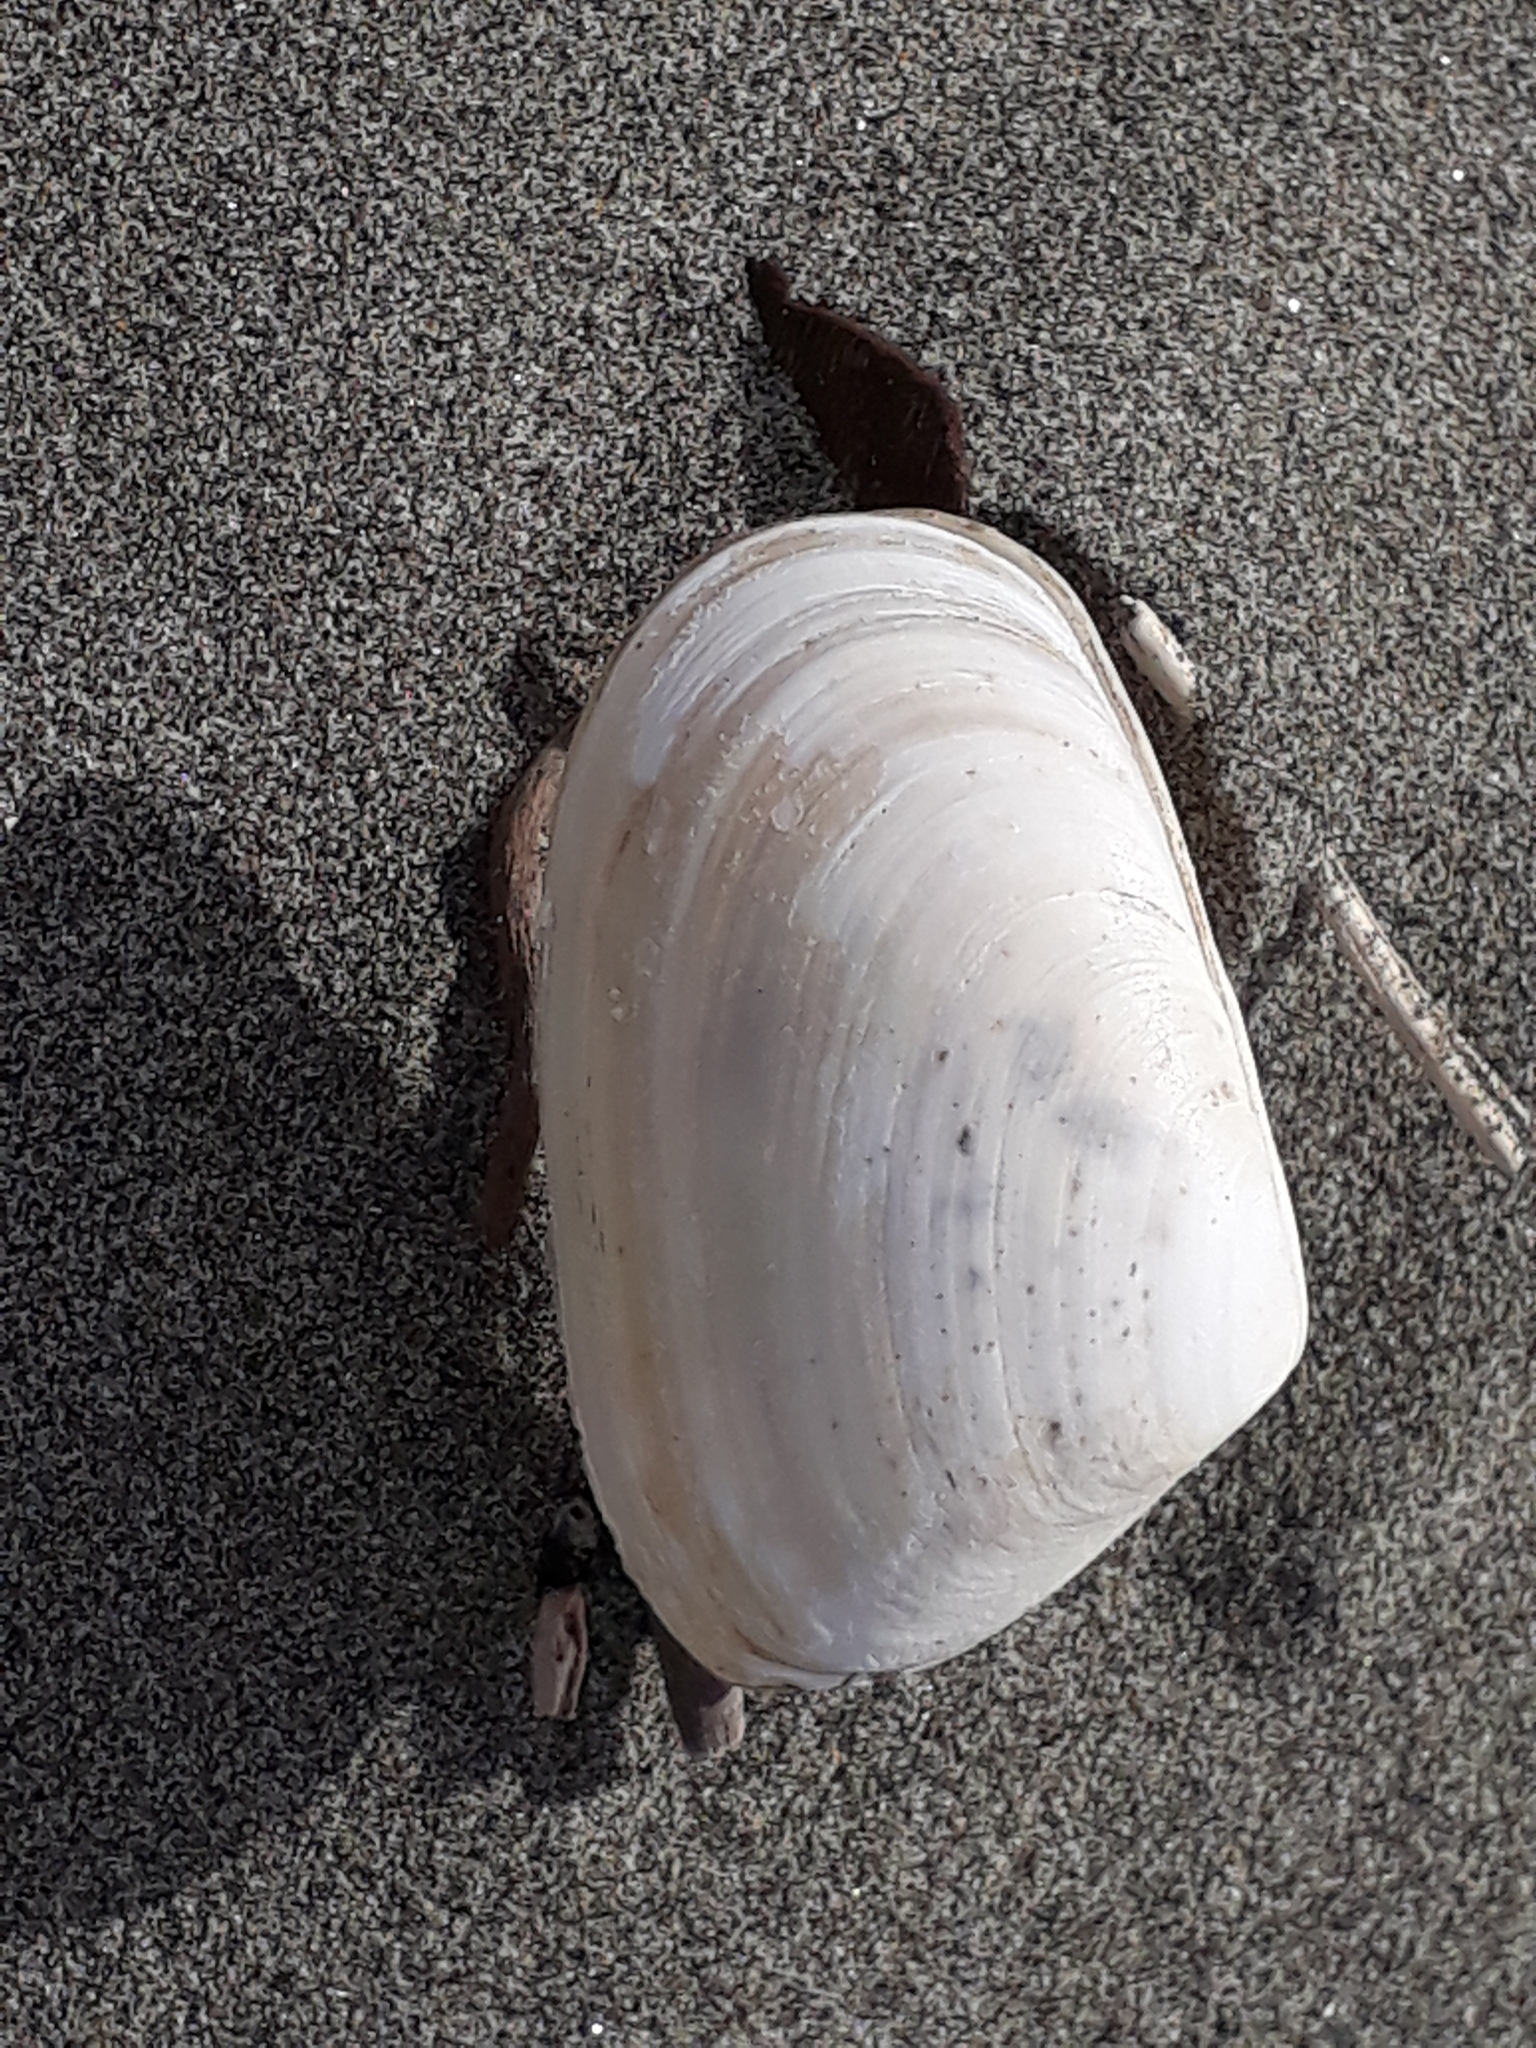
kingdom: Animalia
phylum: Mollusca
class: Bivalvia
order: Venerida
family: Mesodesmatidae
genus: Paphies
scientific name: Paphies donacina
